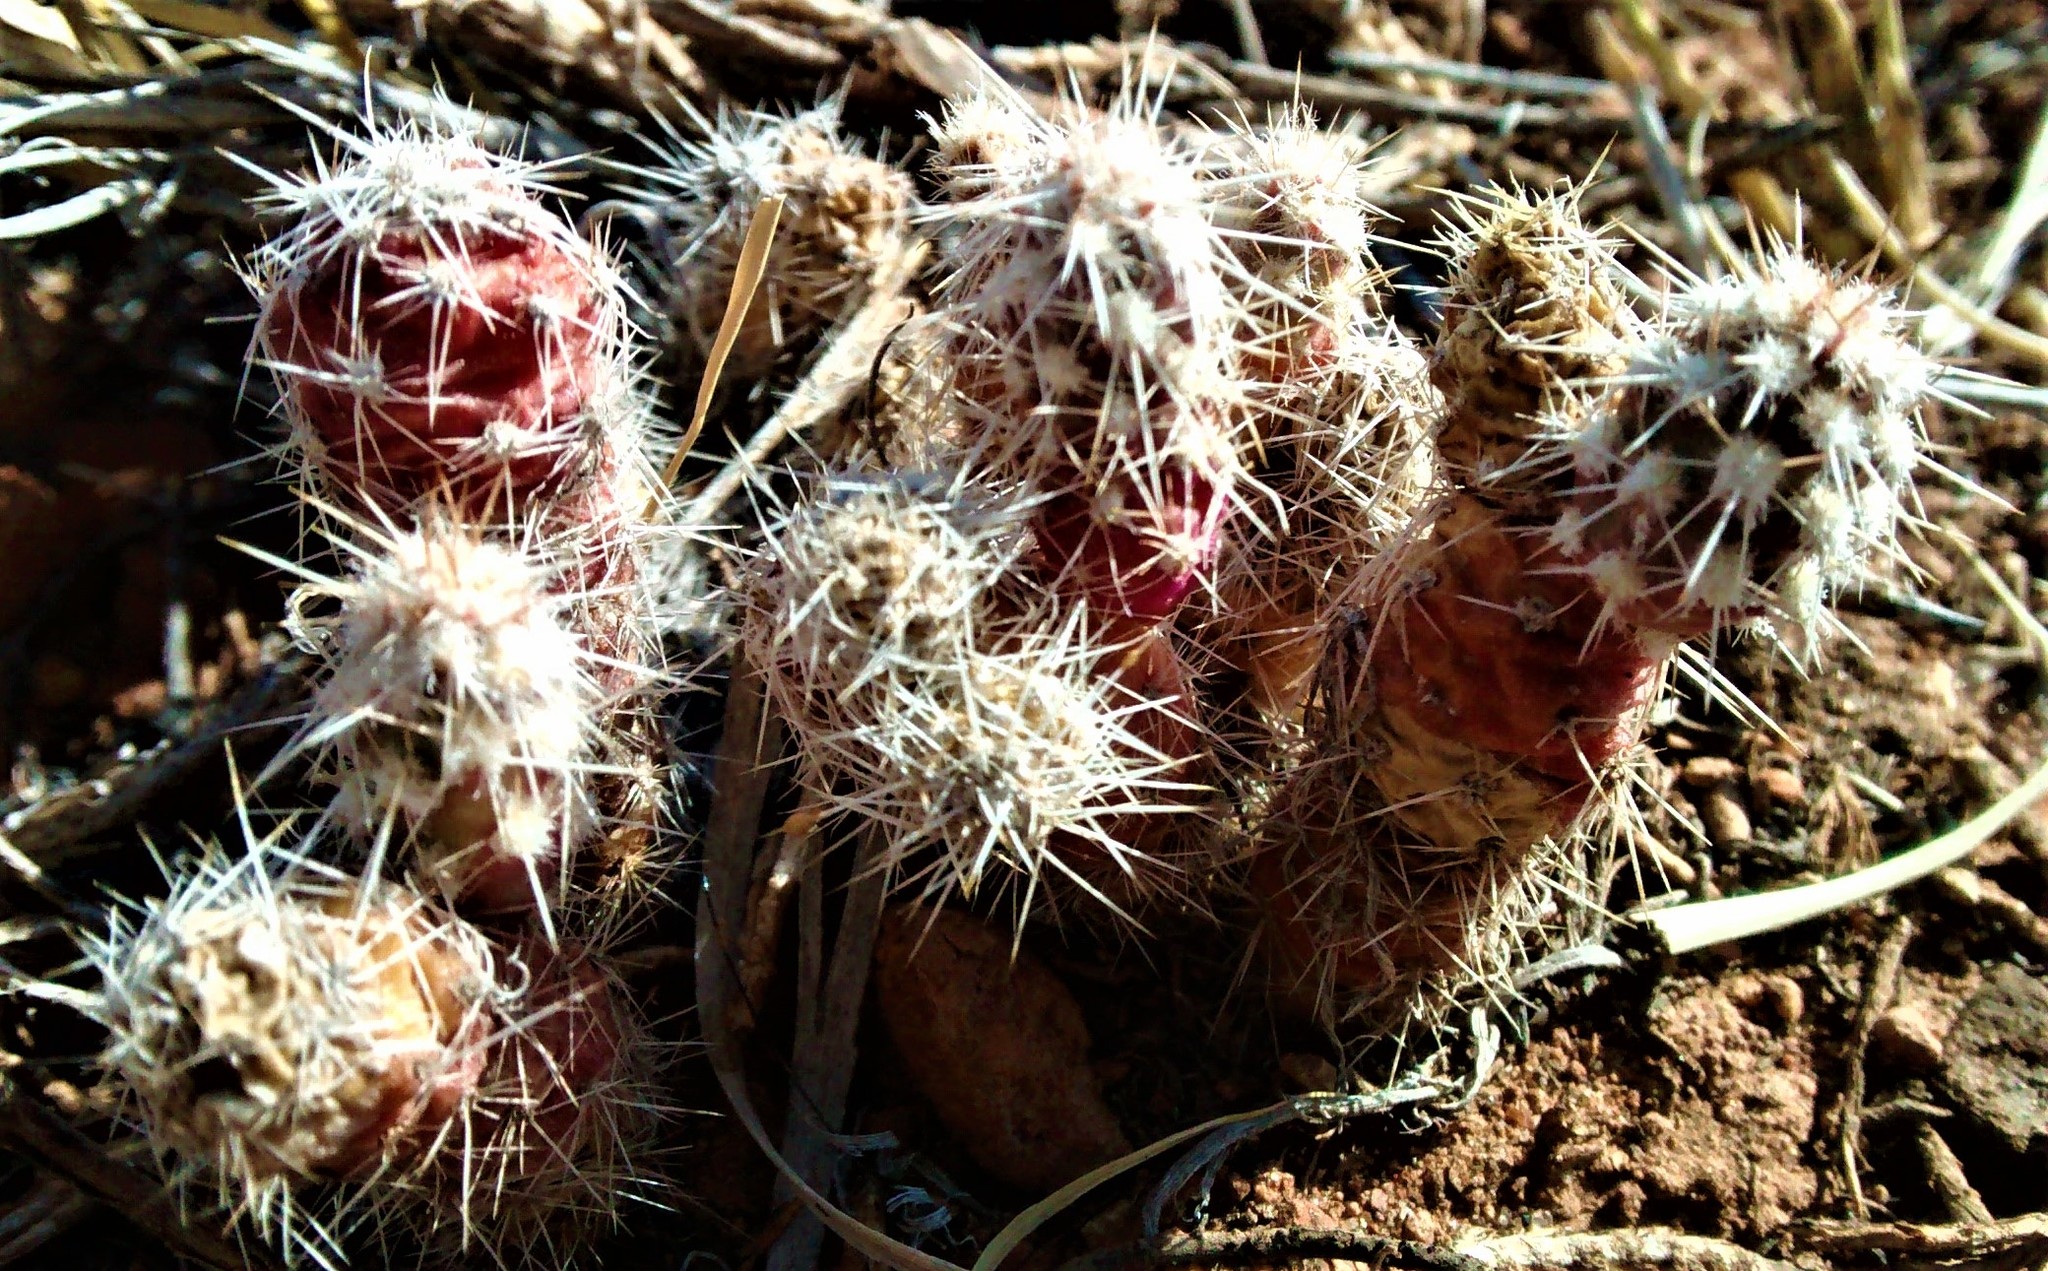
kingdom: Plantae
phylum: Tracheophyta
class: Magnoliopsida
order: Caryophyllales
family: Cactaceae
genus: Opuntia
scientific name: Opuntia
